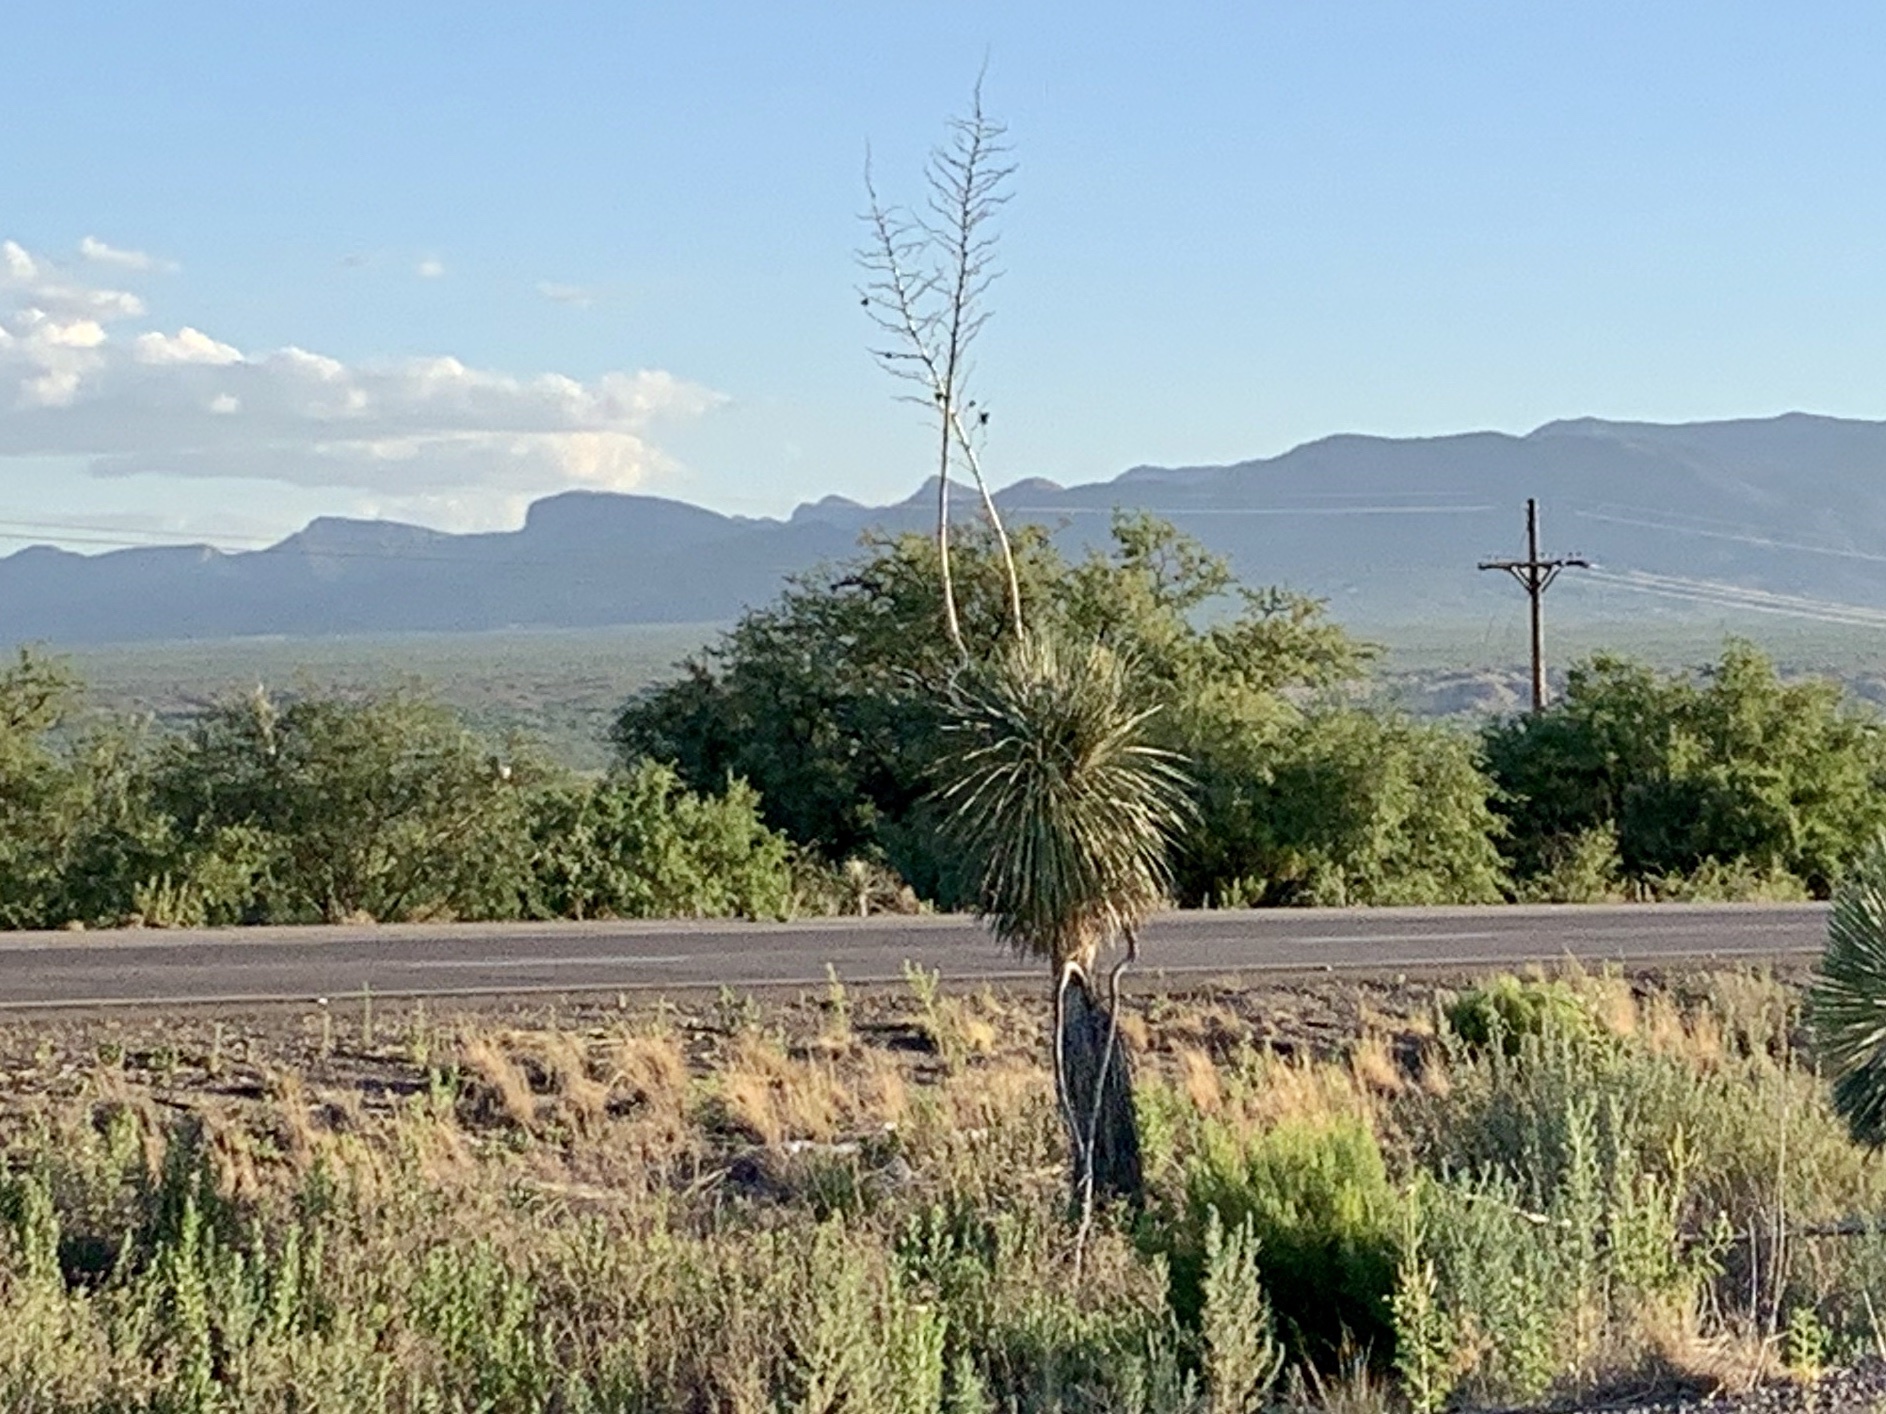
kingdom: Plantae
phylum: Tracheophyta
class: Liliopsida
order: Asparagales
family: Asparagaceae
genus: Yucca
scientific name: Yucca elata
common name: Palmella
